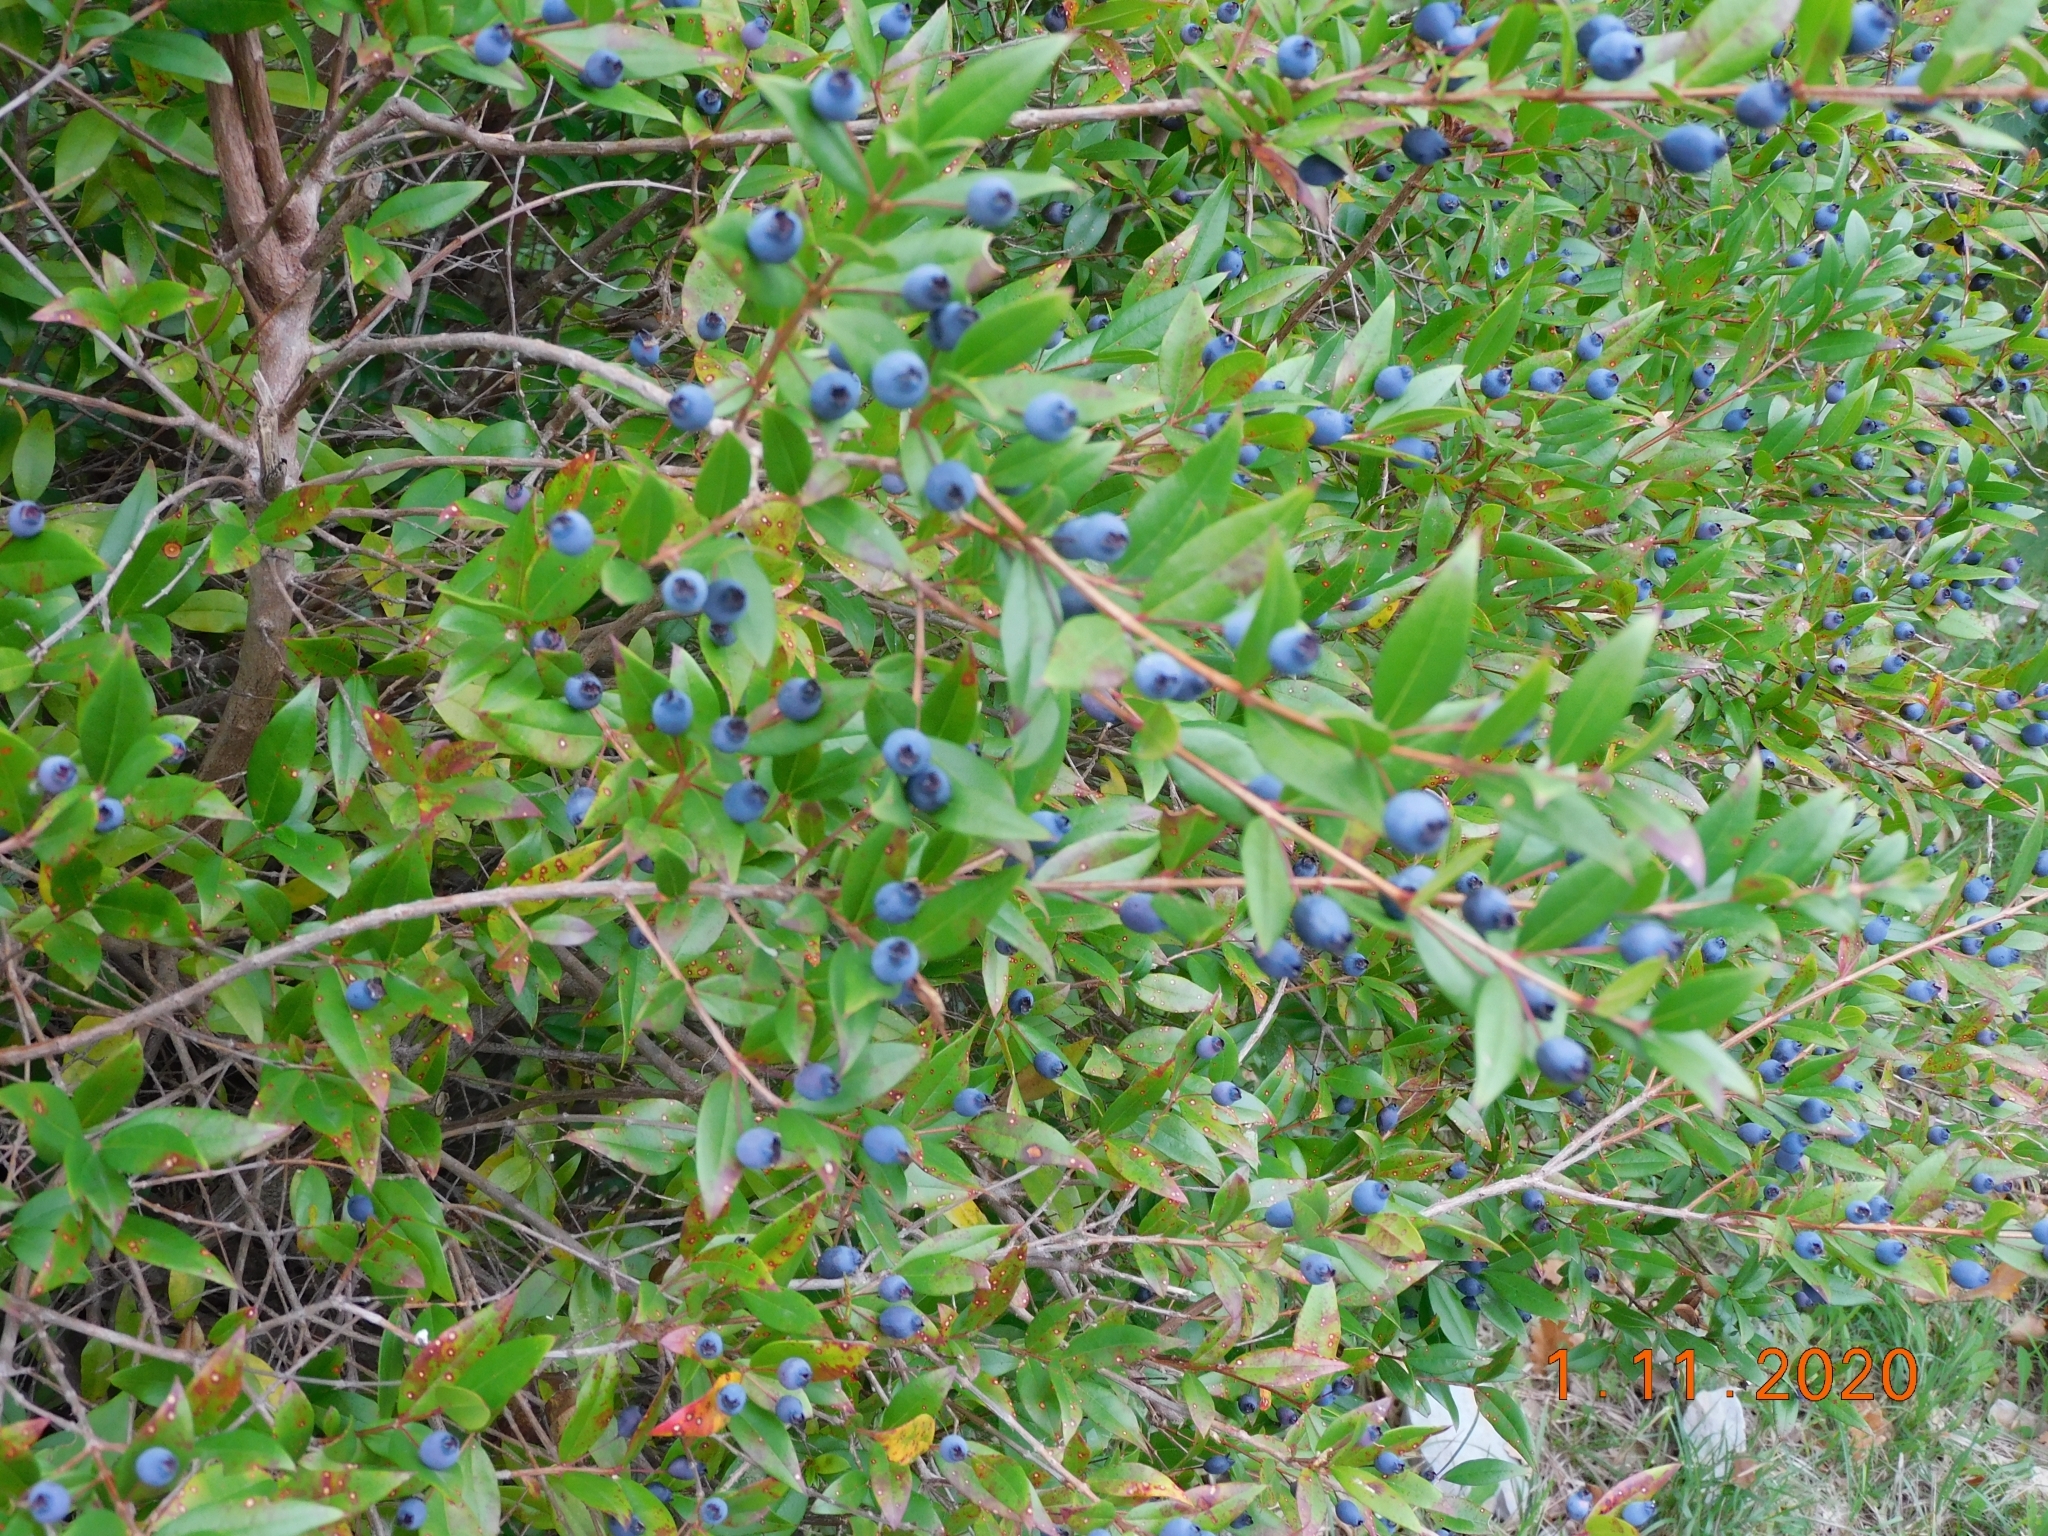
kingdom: Plantae
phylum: Tracheophyta
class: Magnoliopsida
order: Myrtales
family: Myrtaceae
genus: Myrtus
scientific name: Myrtus communis
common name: Myrtle
